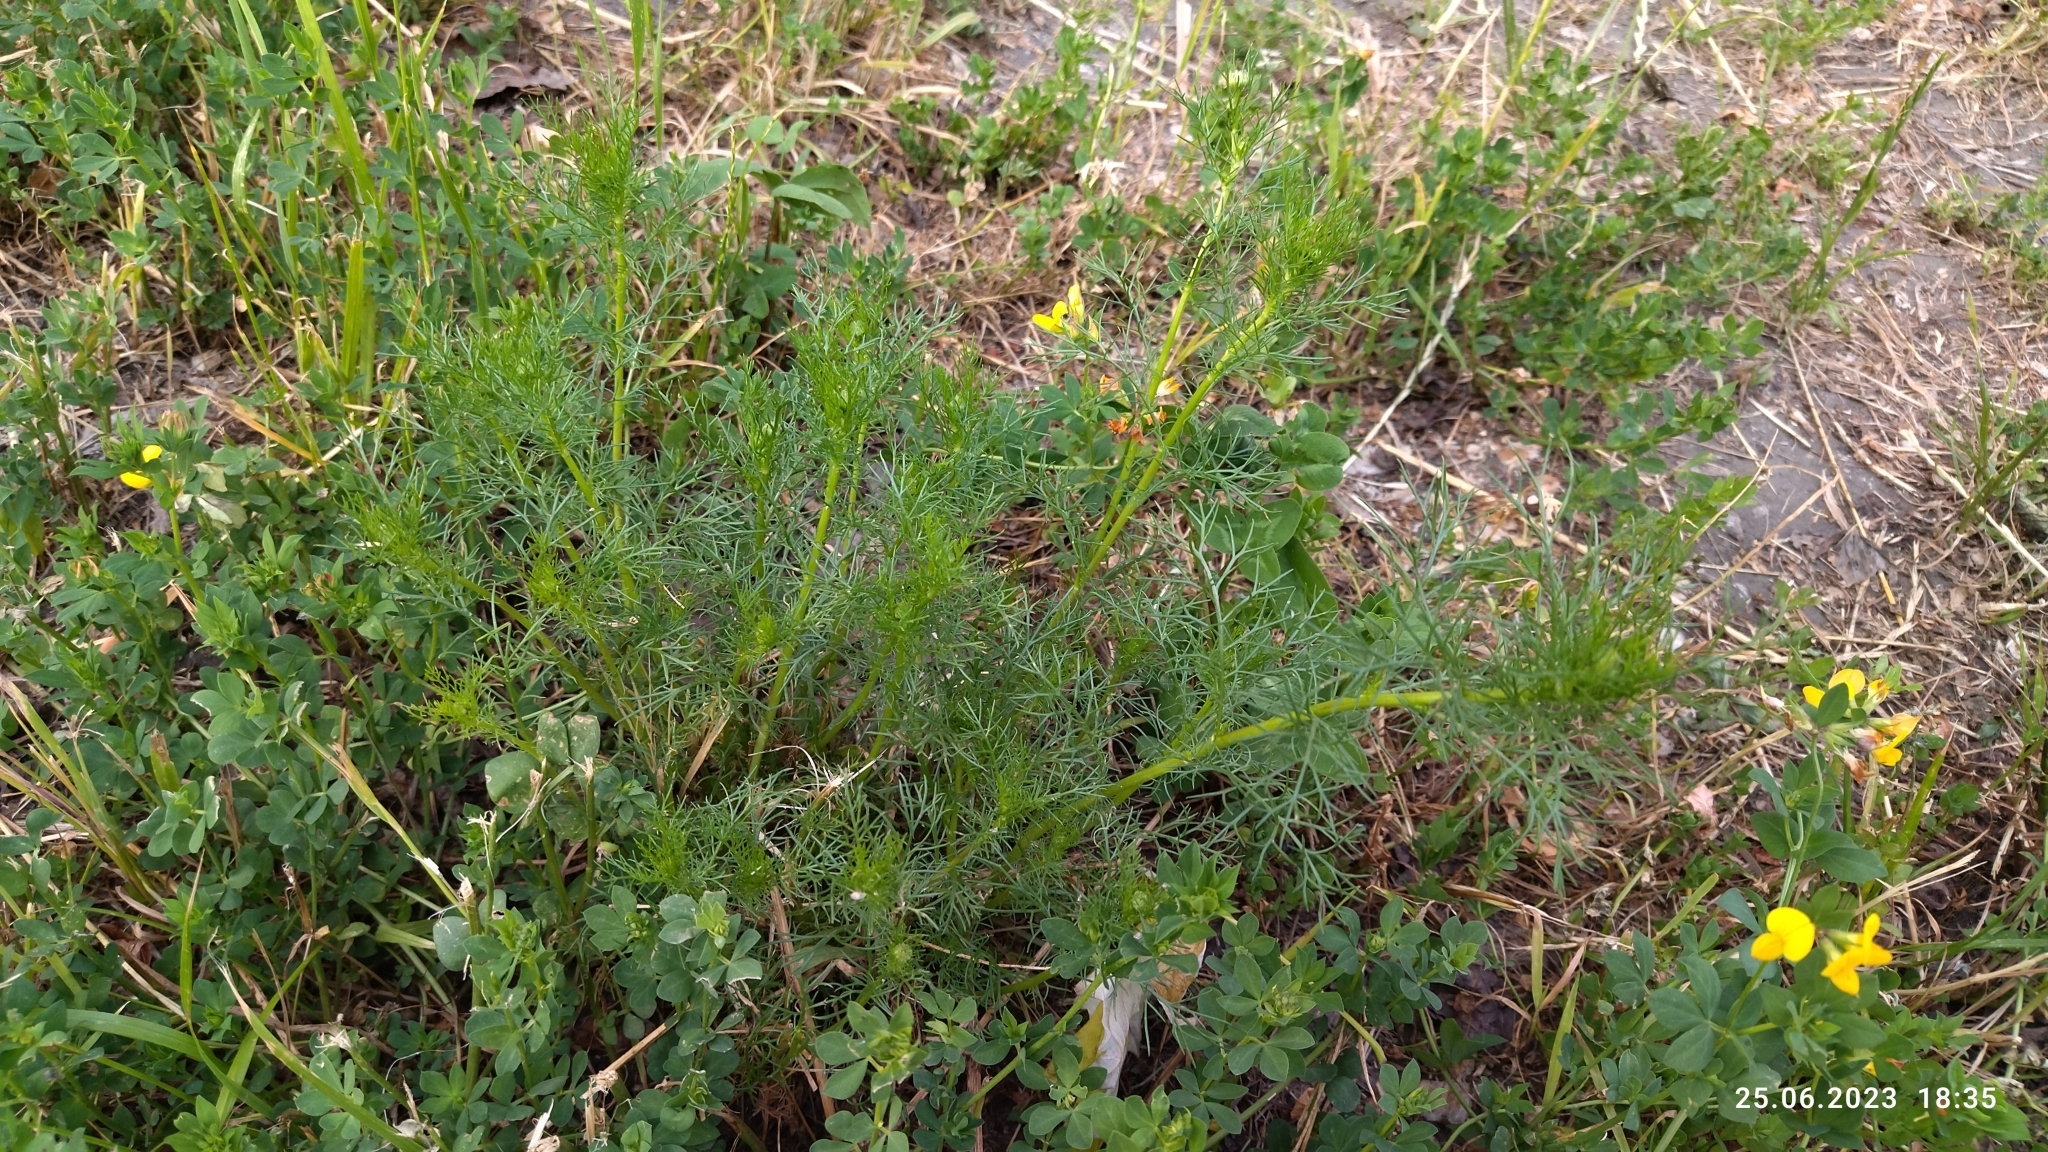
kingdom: Plantae
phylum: Tracheophyta
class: Magnoliopsida
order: Asterales
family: Asteraceae
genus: Tripleurospermum
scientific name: Tripleurospermum inodorum
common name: Scentless mayweed
